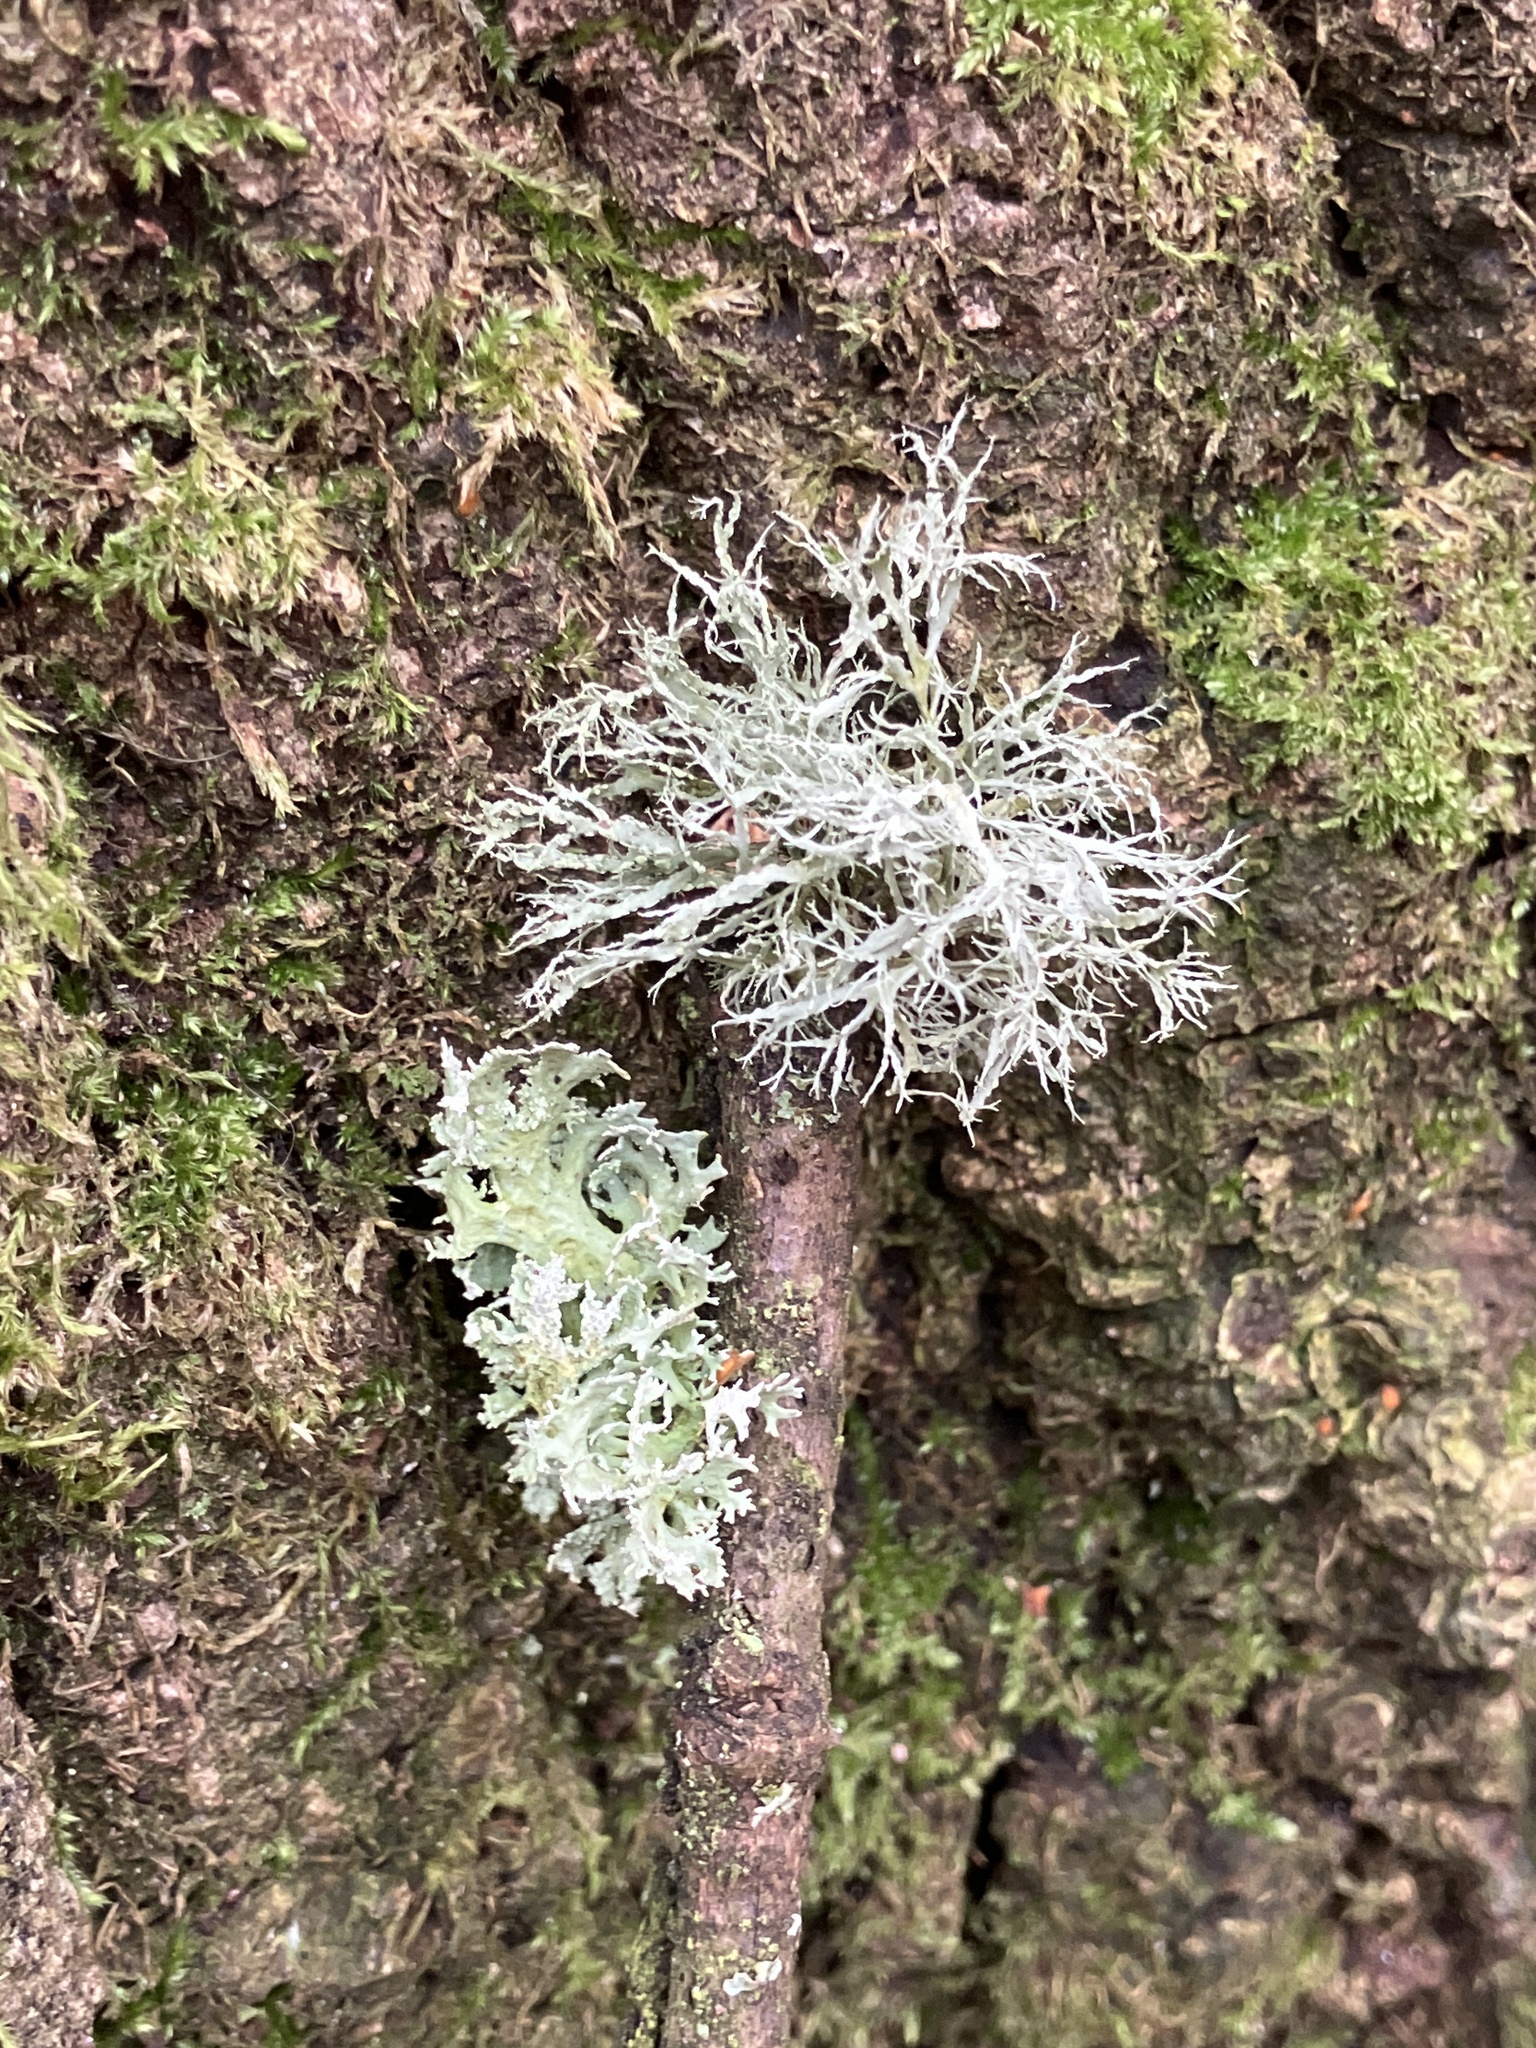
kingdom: Fungi
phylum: Ascomycota
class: Lecanoromycetes
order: Lecanorales
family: Ramalinaceae
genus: Ramalina
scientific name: Ramalina farinacea
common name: Farinose cartilage lichen
